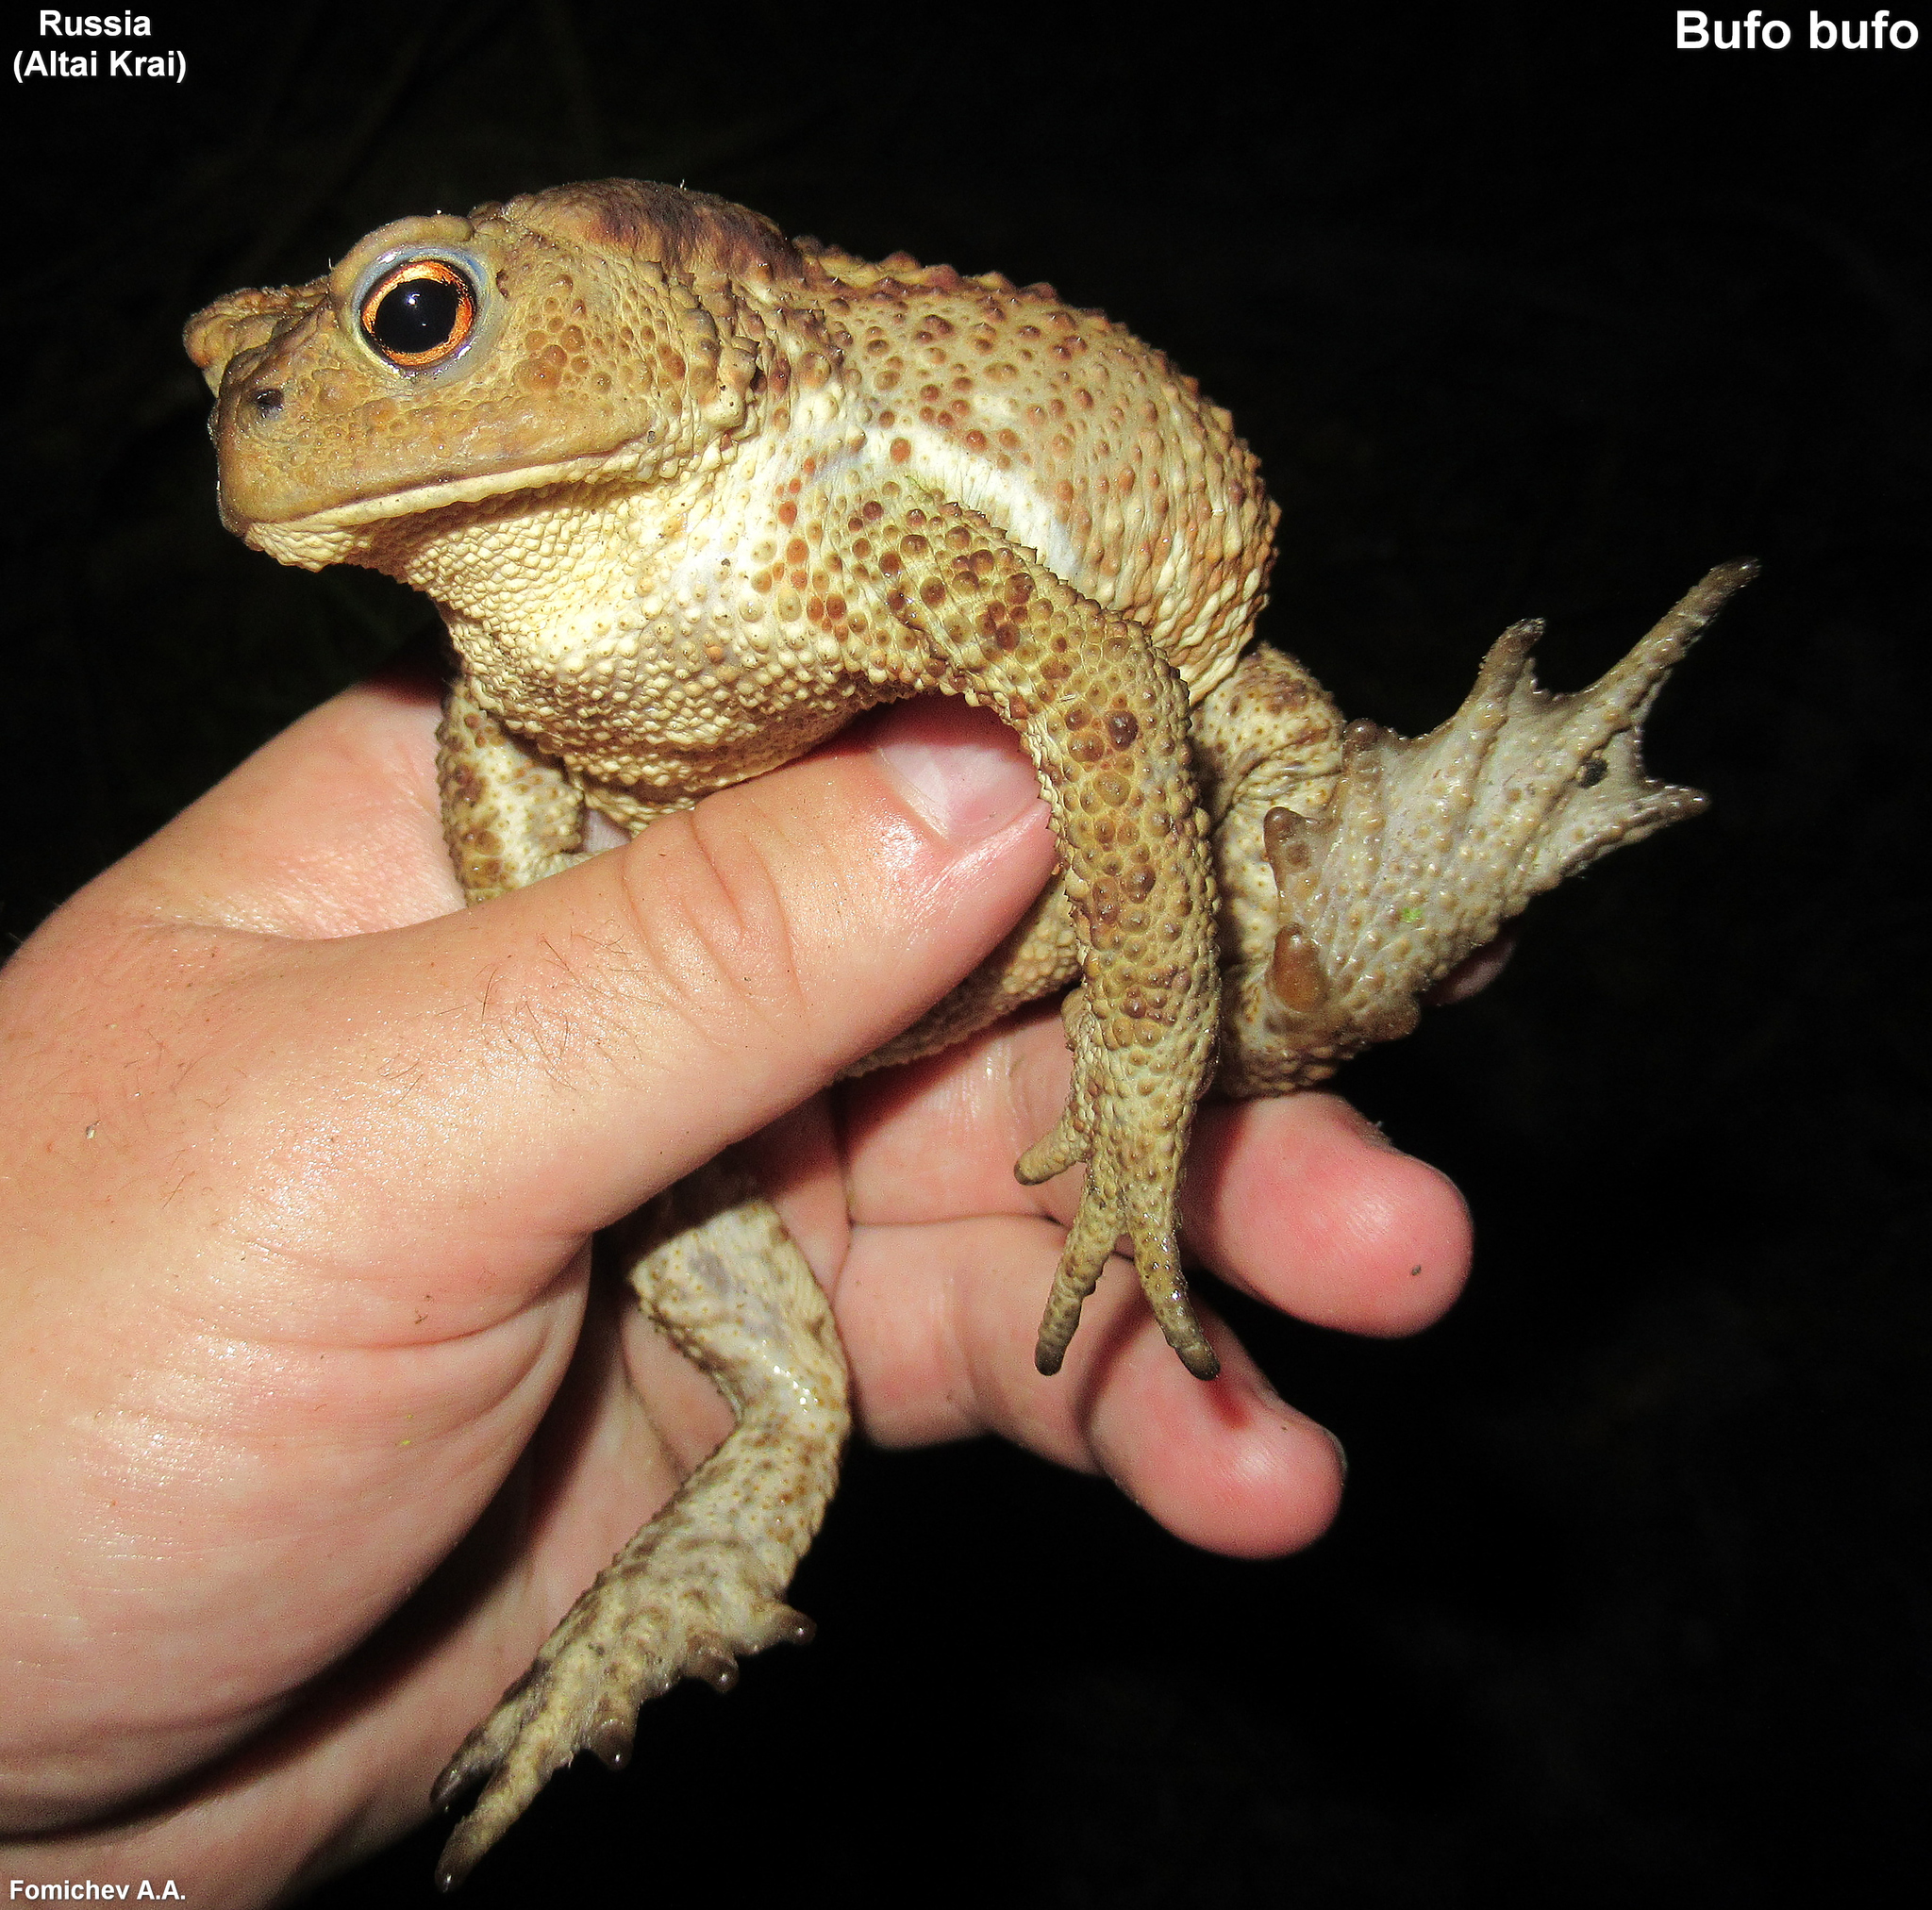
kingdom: Animalia
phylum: Chordata
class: Amphibia
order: Anura
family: Bufonidae
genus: Bufo
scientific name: Bufo bufo
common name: Common toad
